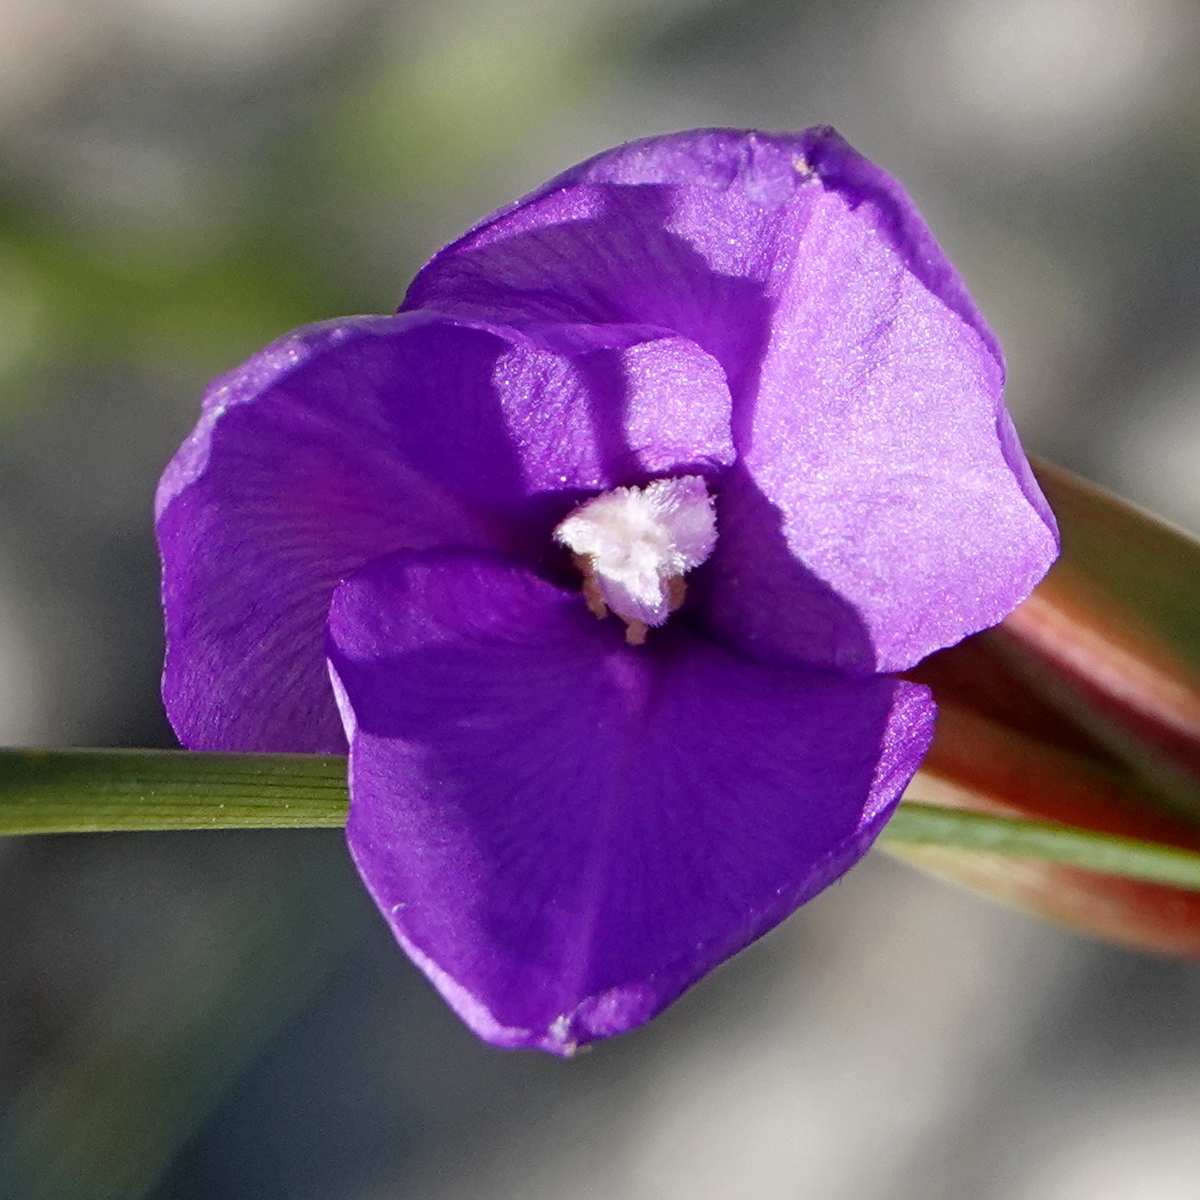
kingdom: Plantae
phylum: Tracheophyta
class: Liliopsida
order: Asparagales
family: Iridaceae
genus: Patersonia
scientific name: Patersonia fragilis
